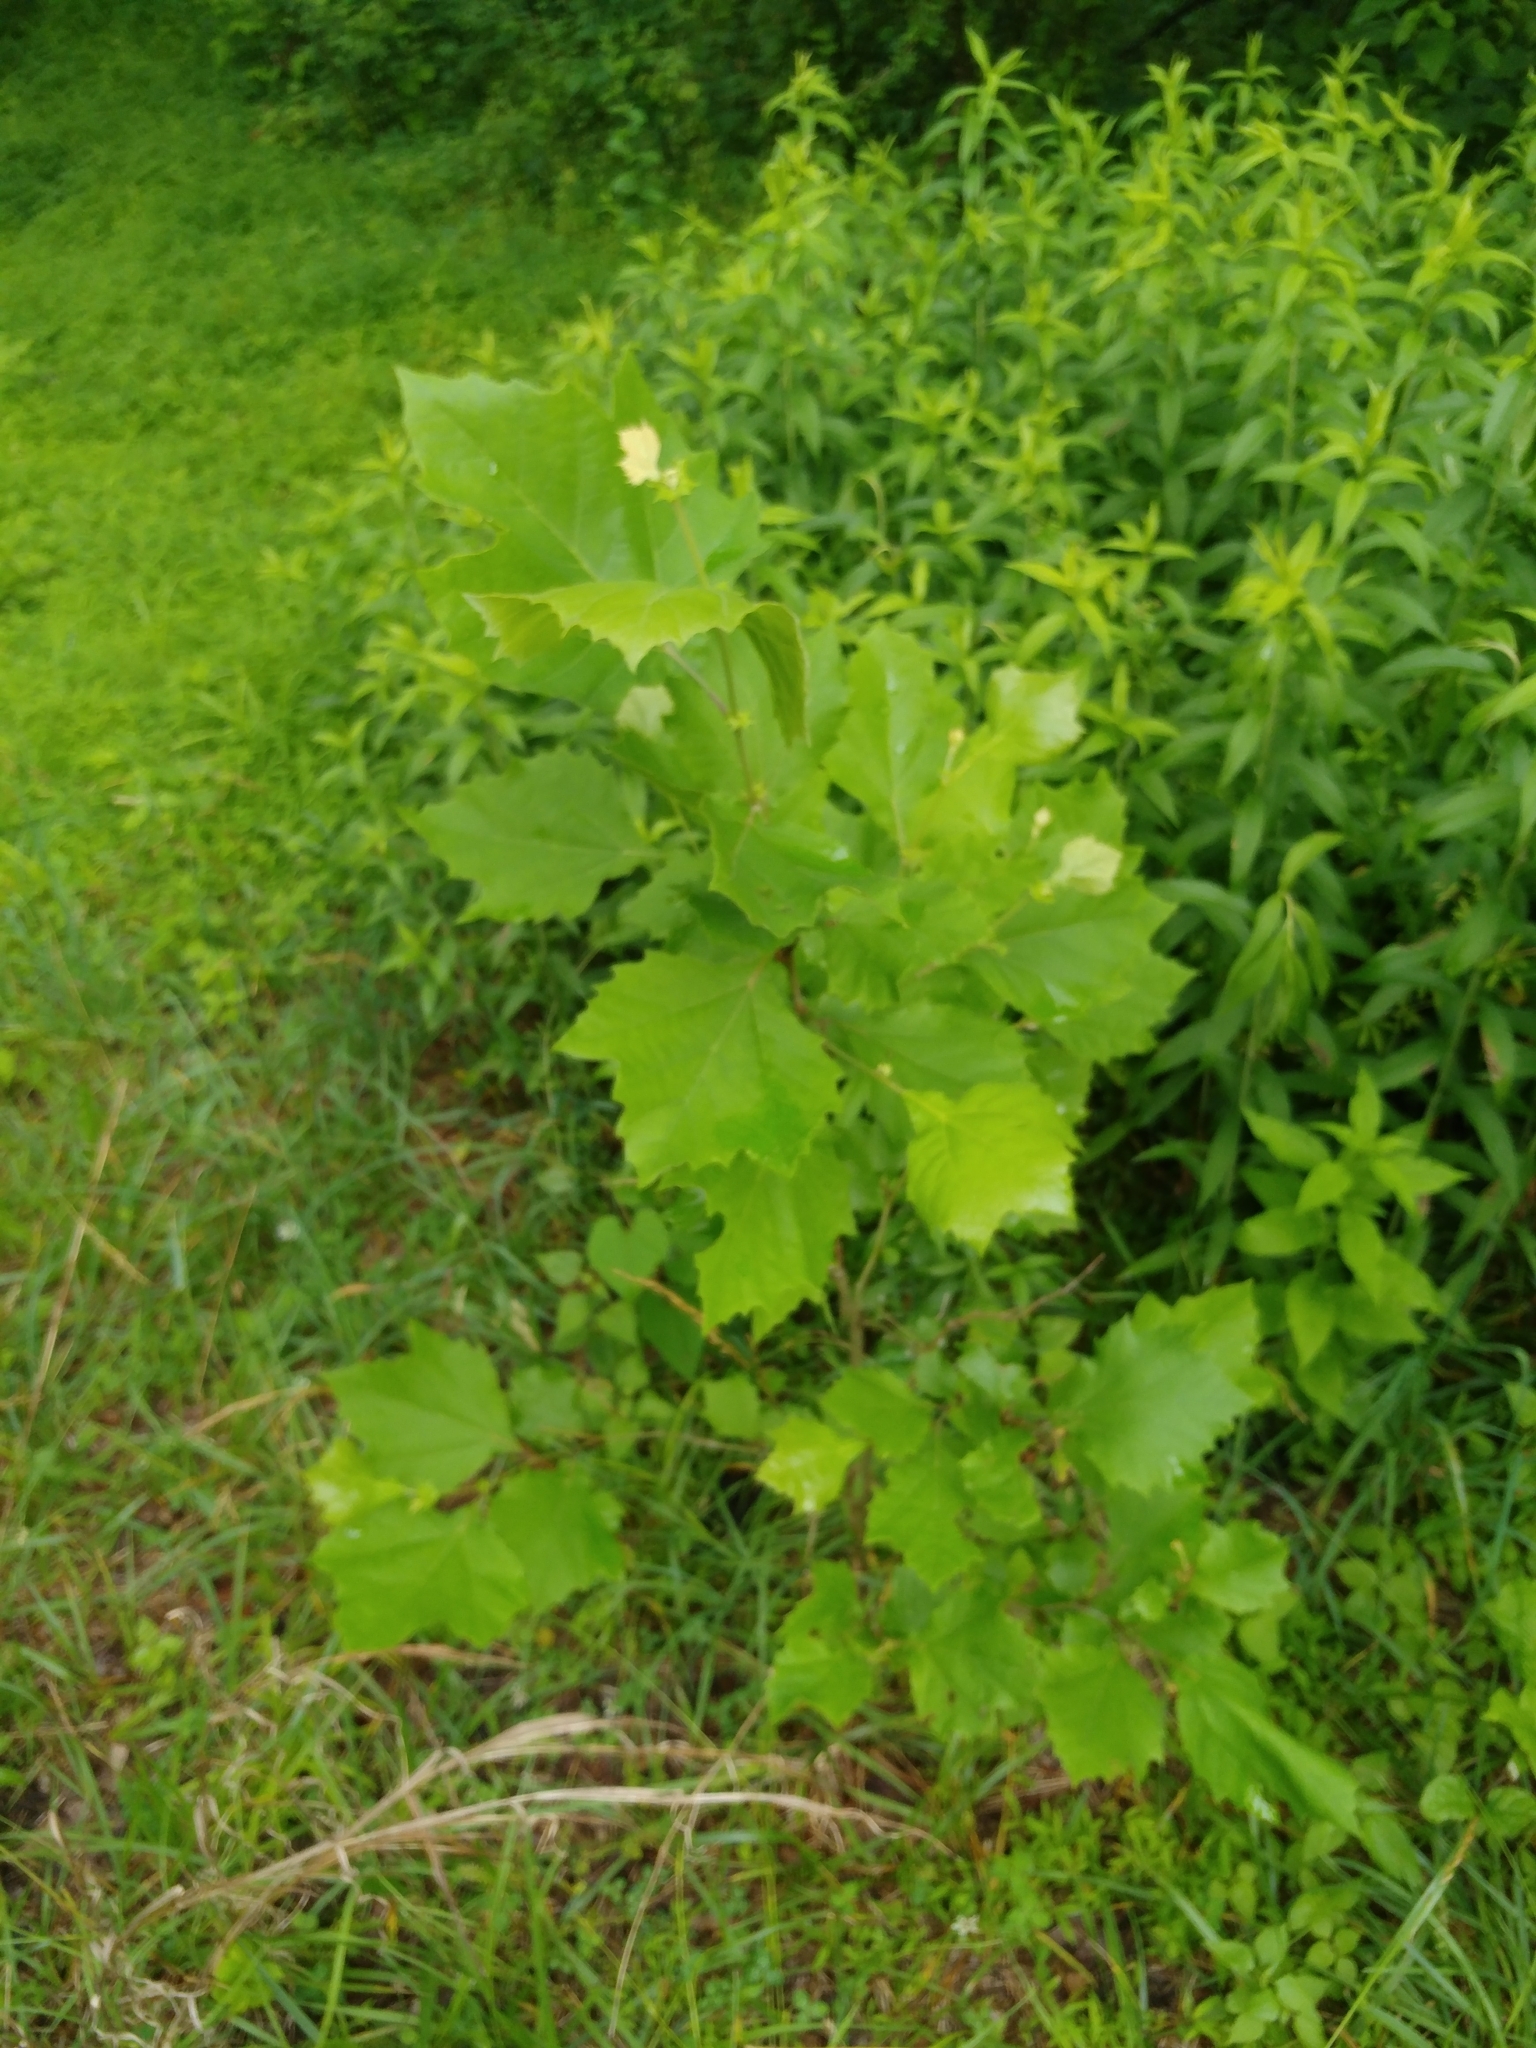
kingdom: Plantae
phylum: Tracheophyta
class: Magnoliopsida
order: Proteales
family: Platanaceae
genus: Platanus
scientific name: Platanus occidentalis
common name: American sycamore
